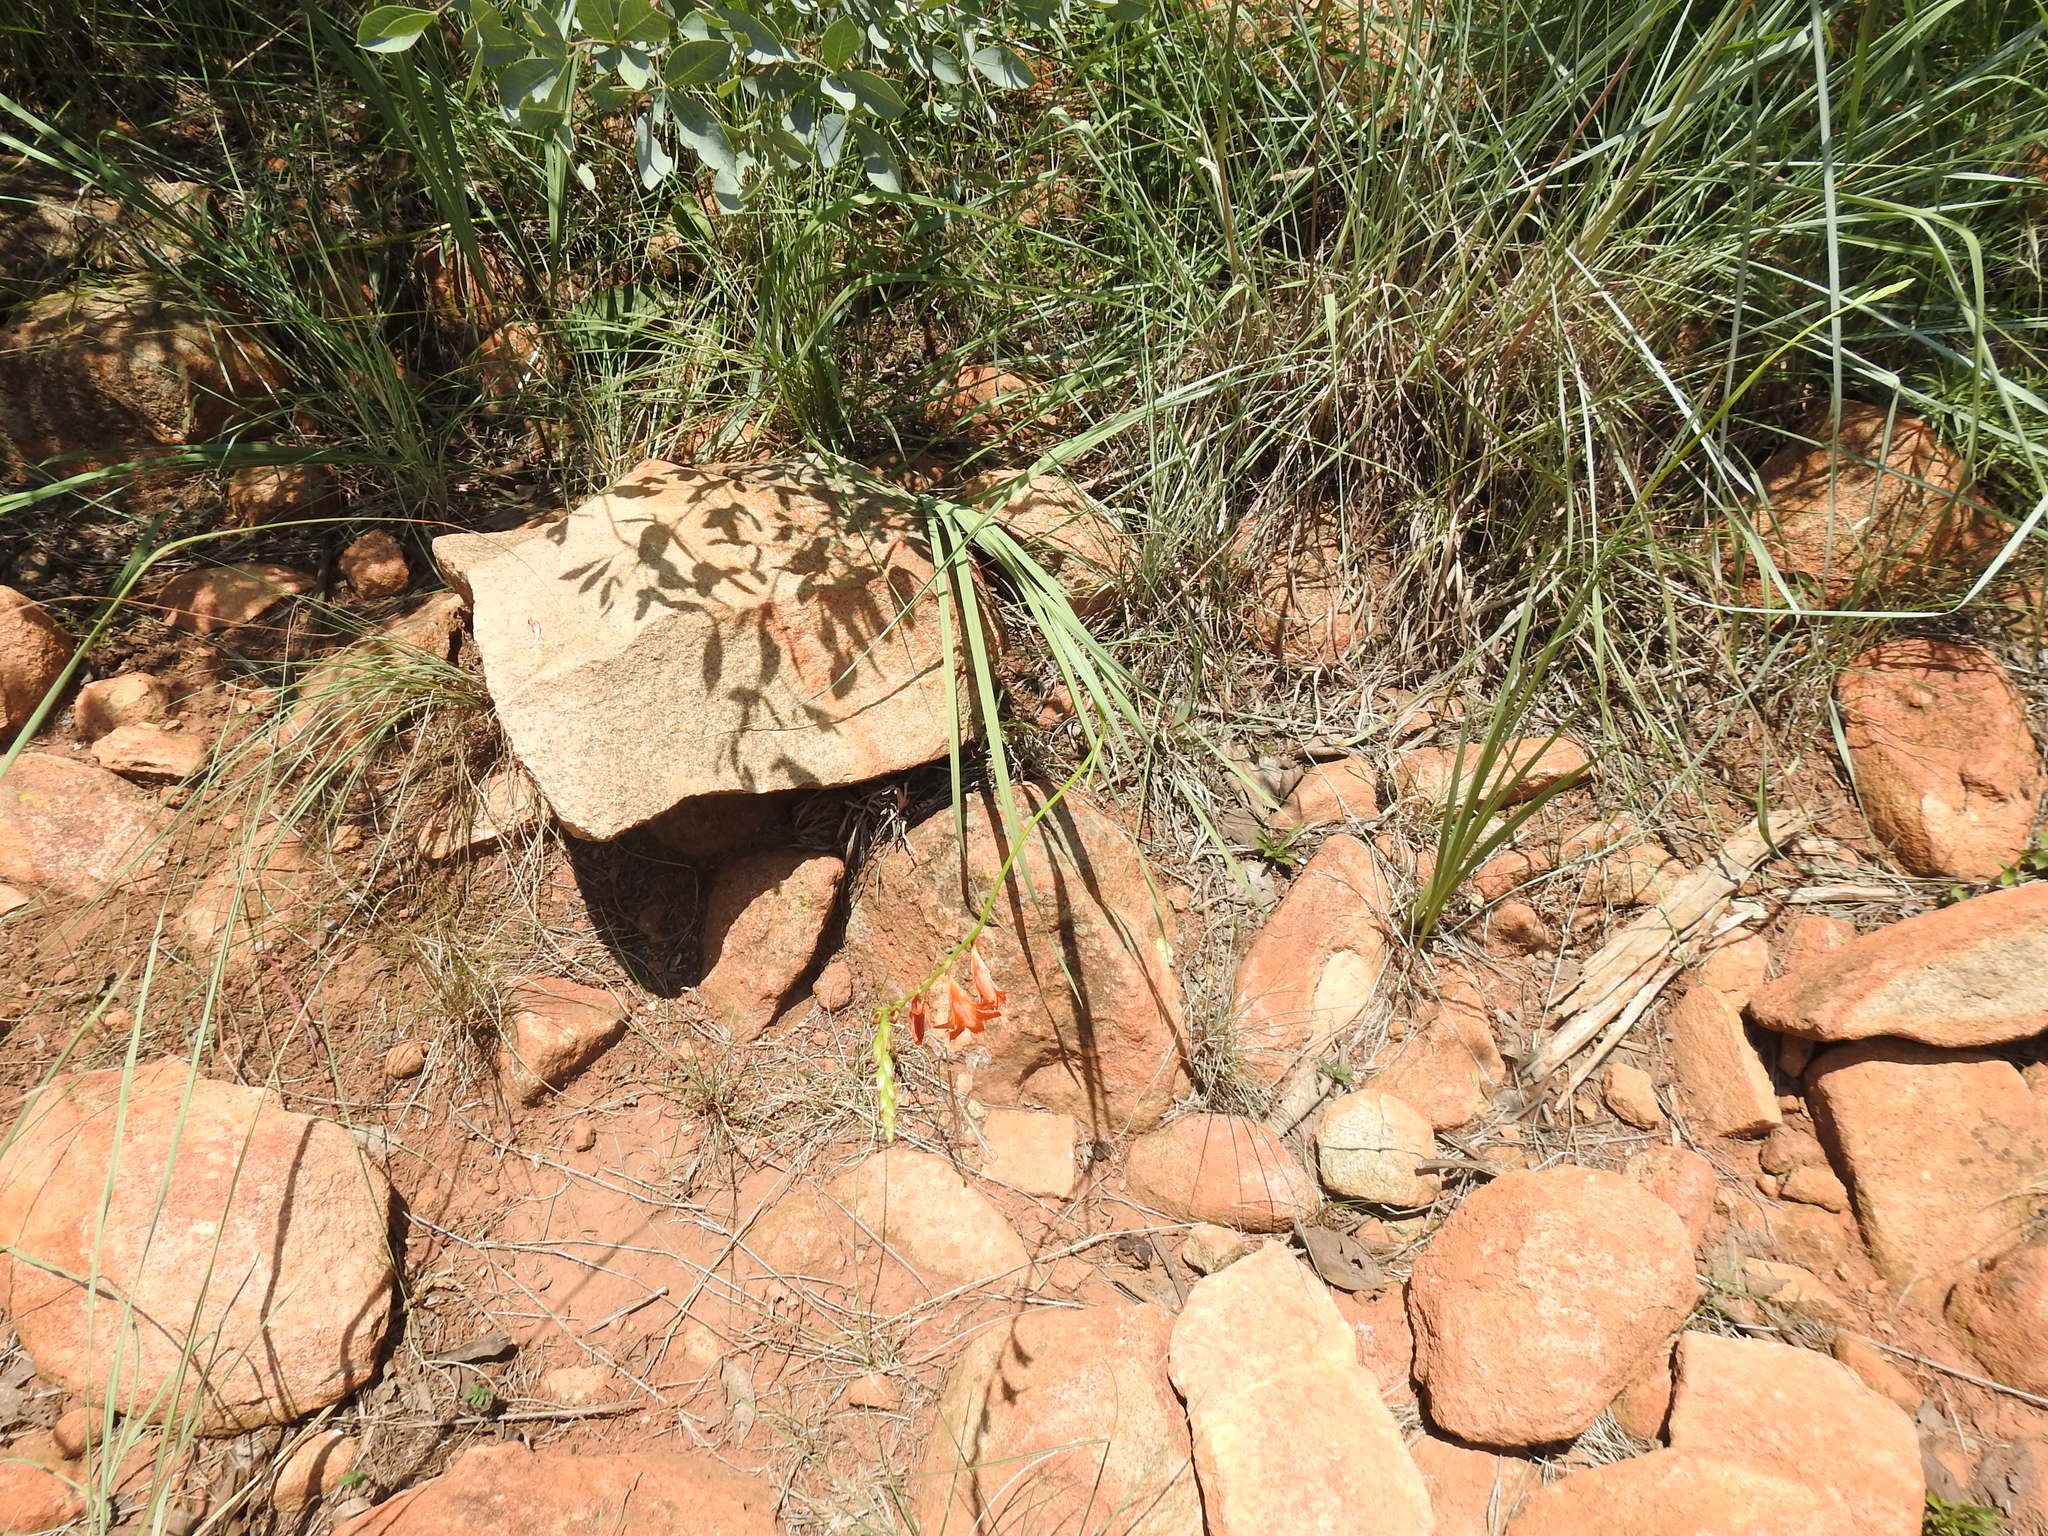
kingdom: Plantae
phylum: Tracheophyta
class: Liliopsida
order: Asparagales
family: Iridaceae
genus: Tritonia
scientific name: Tritonia nelsonii
